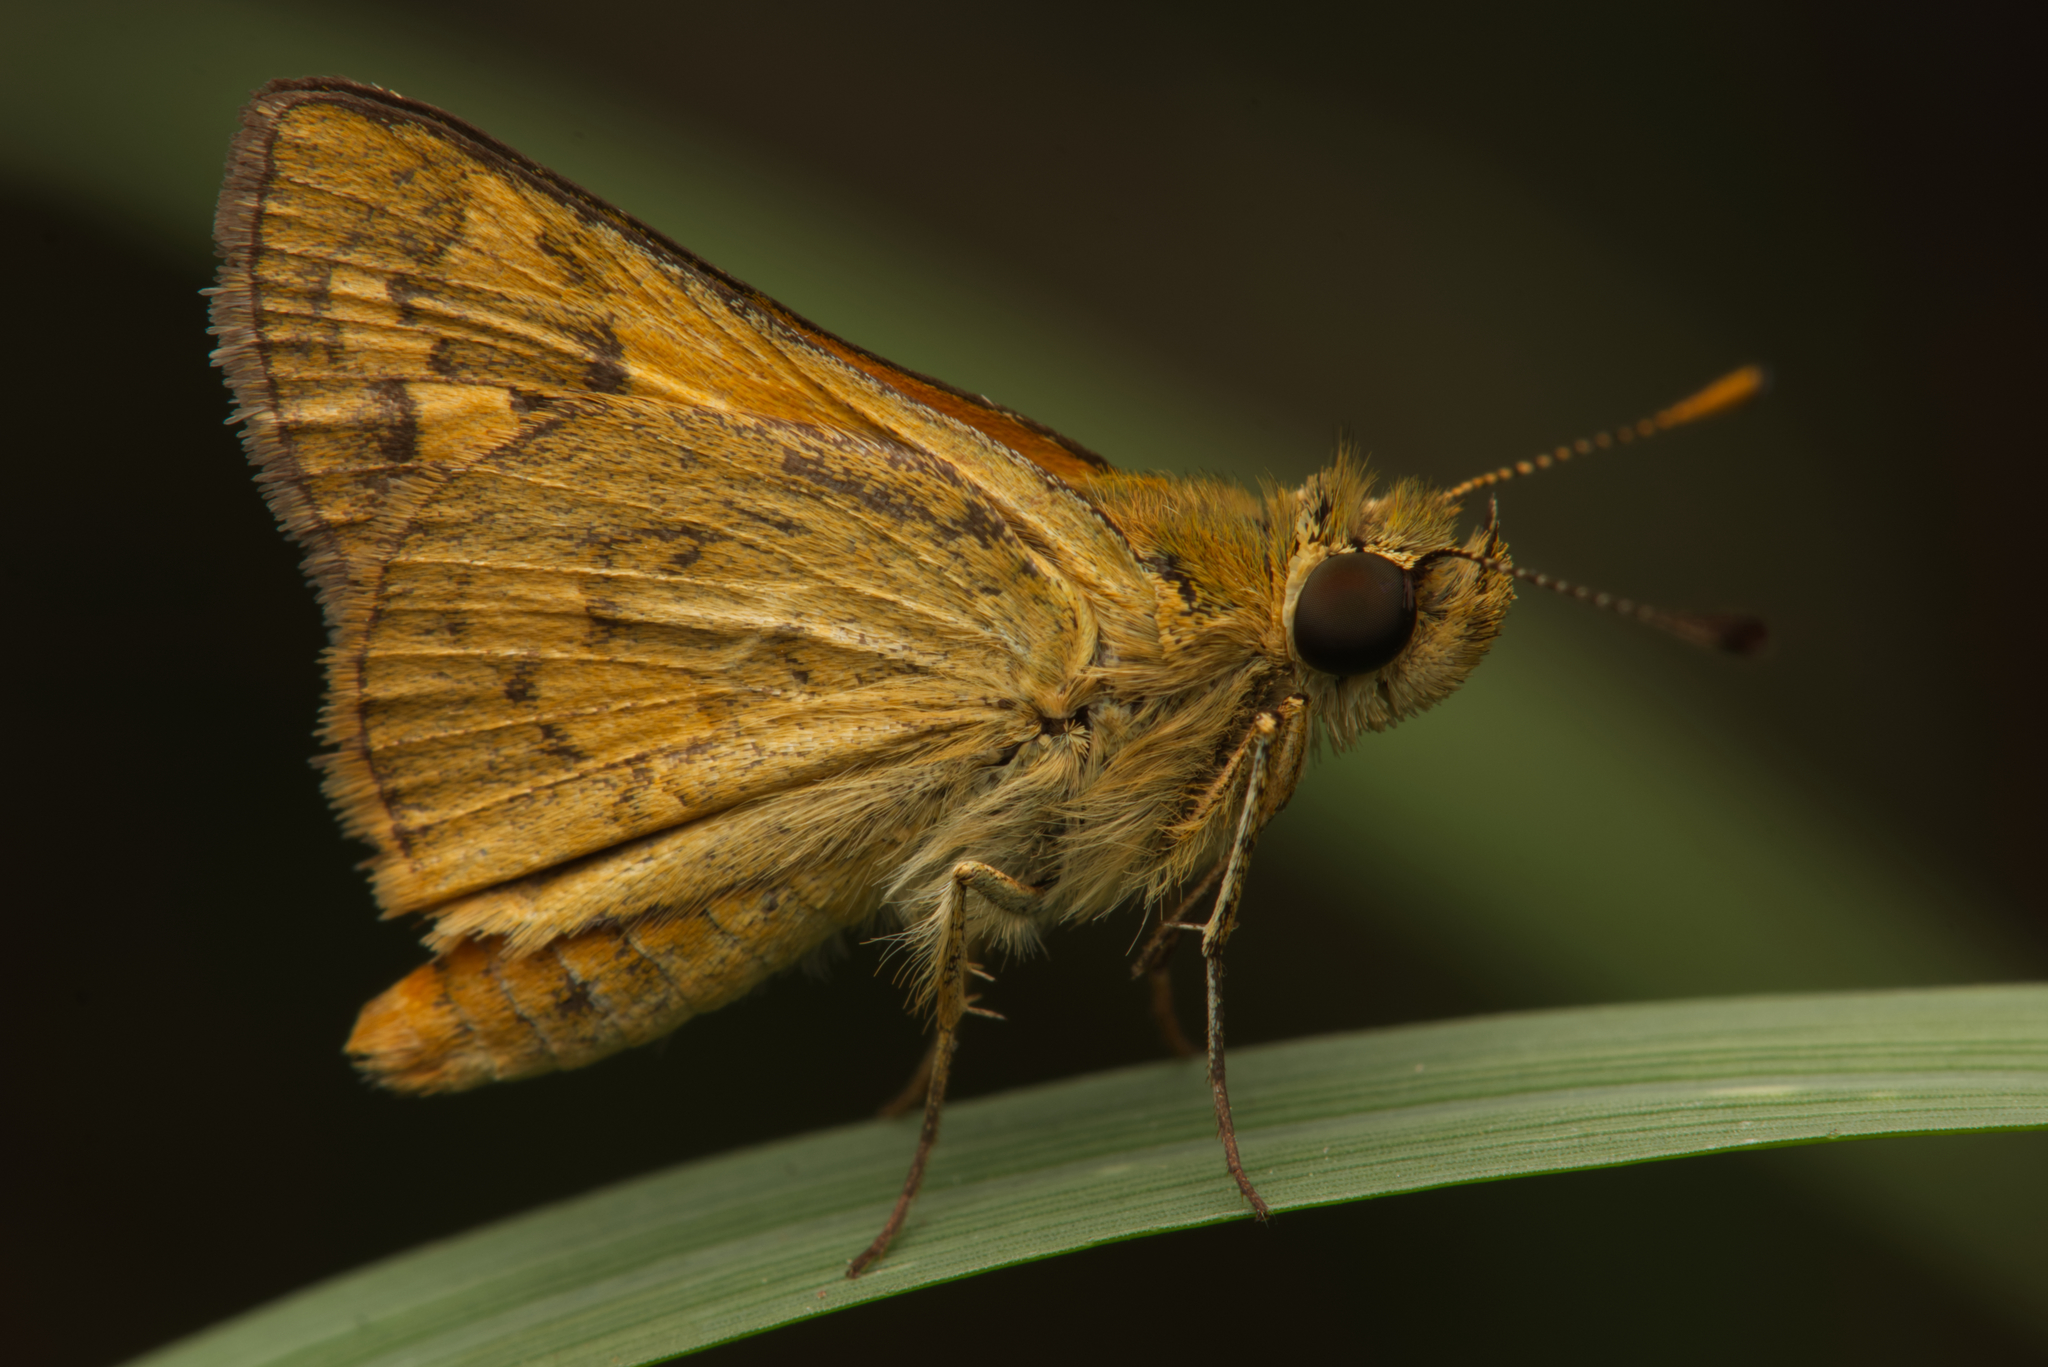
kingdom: Animalia
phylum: Arthropoda
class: Insecta
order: Lepidoptera
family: Hesperiidae
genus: Ocybadistes
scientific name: Ocybadistes walkeri
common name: Yellow-banded dart
